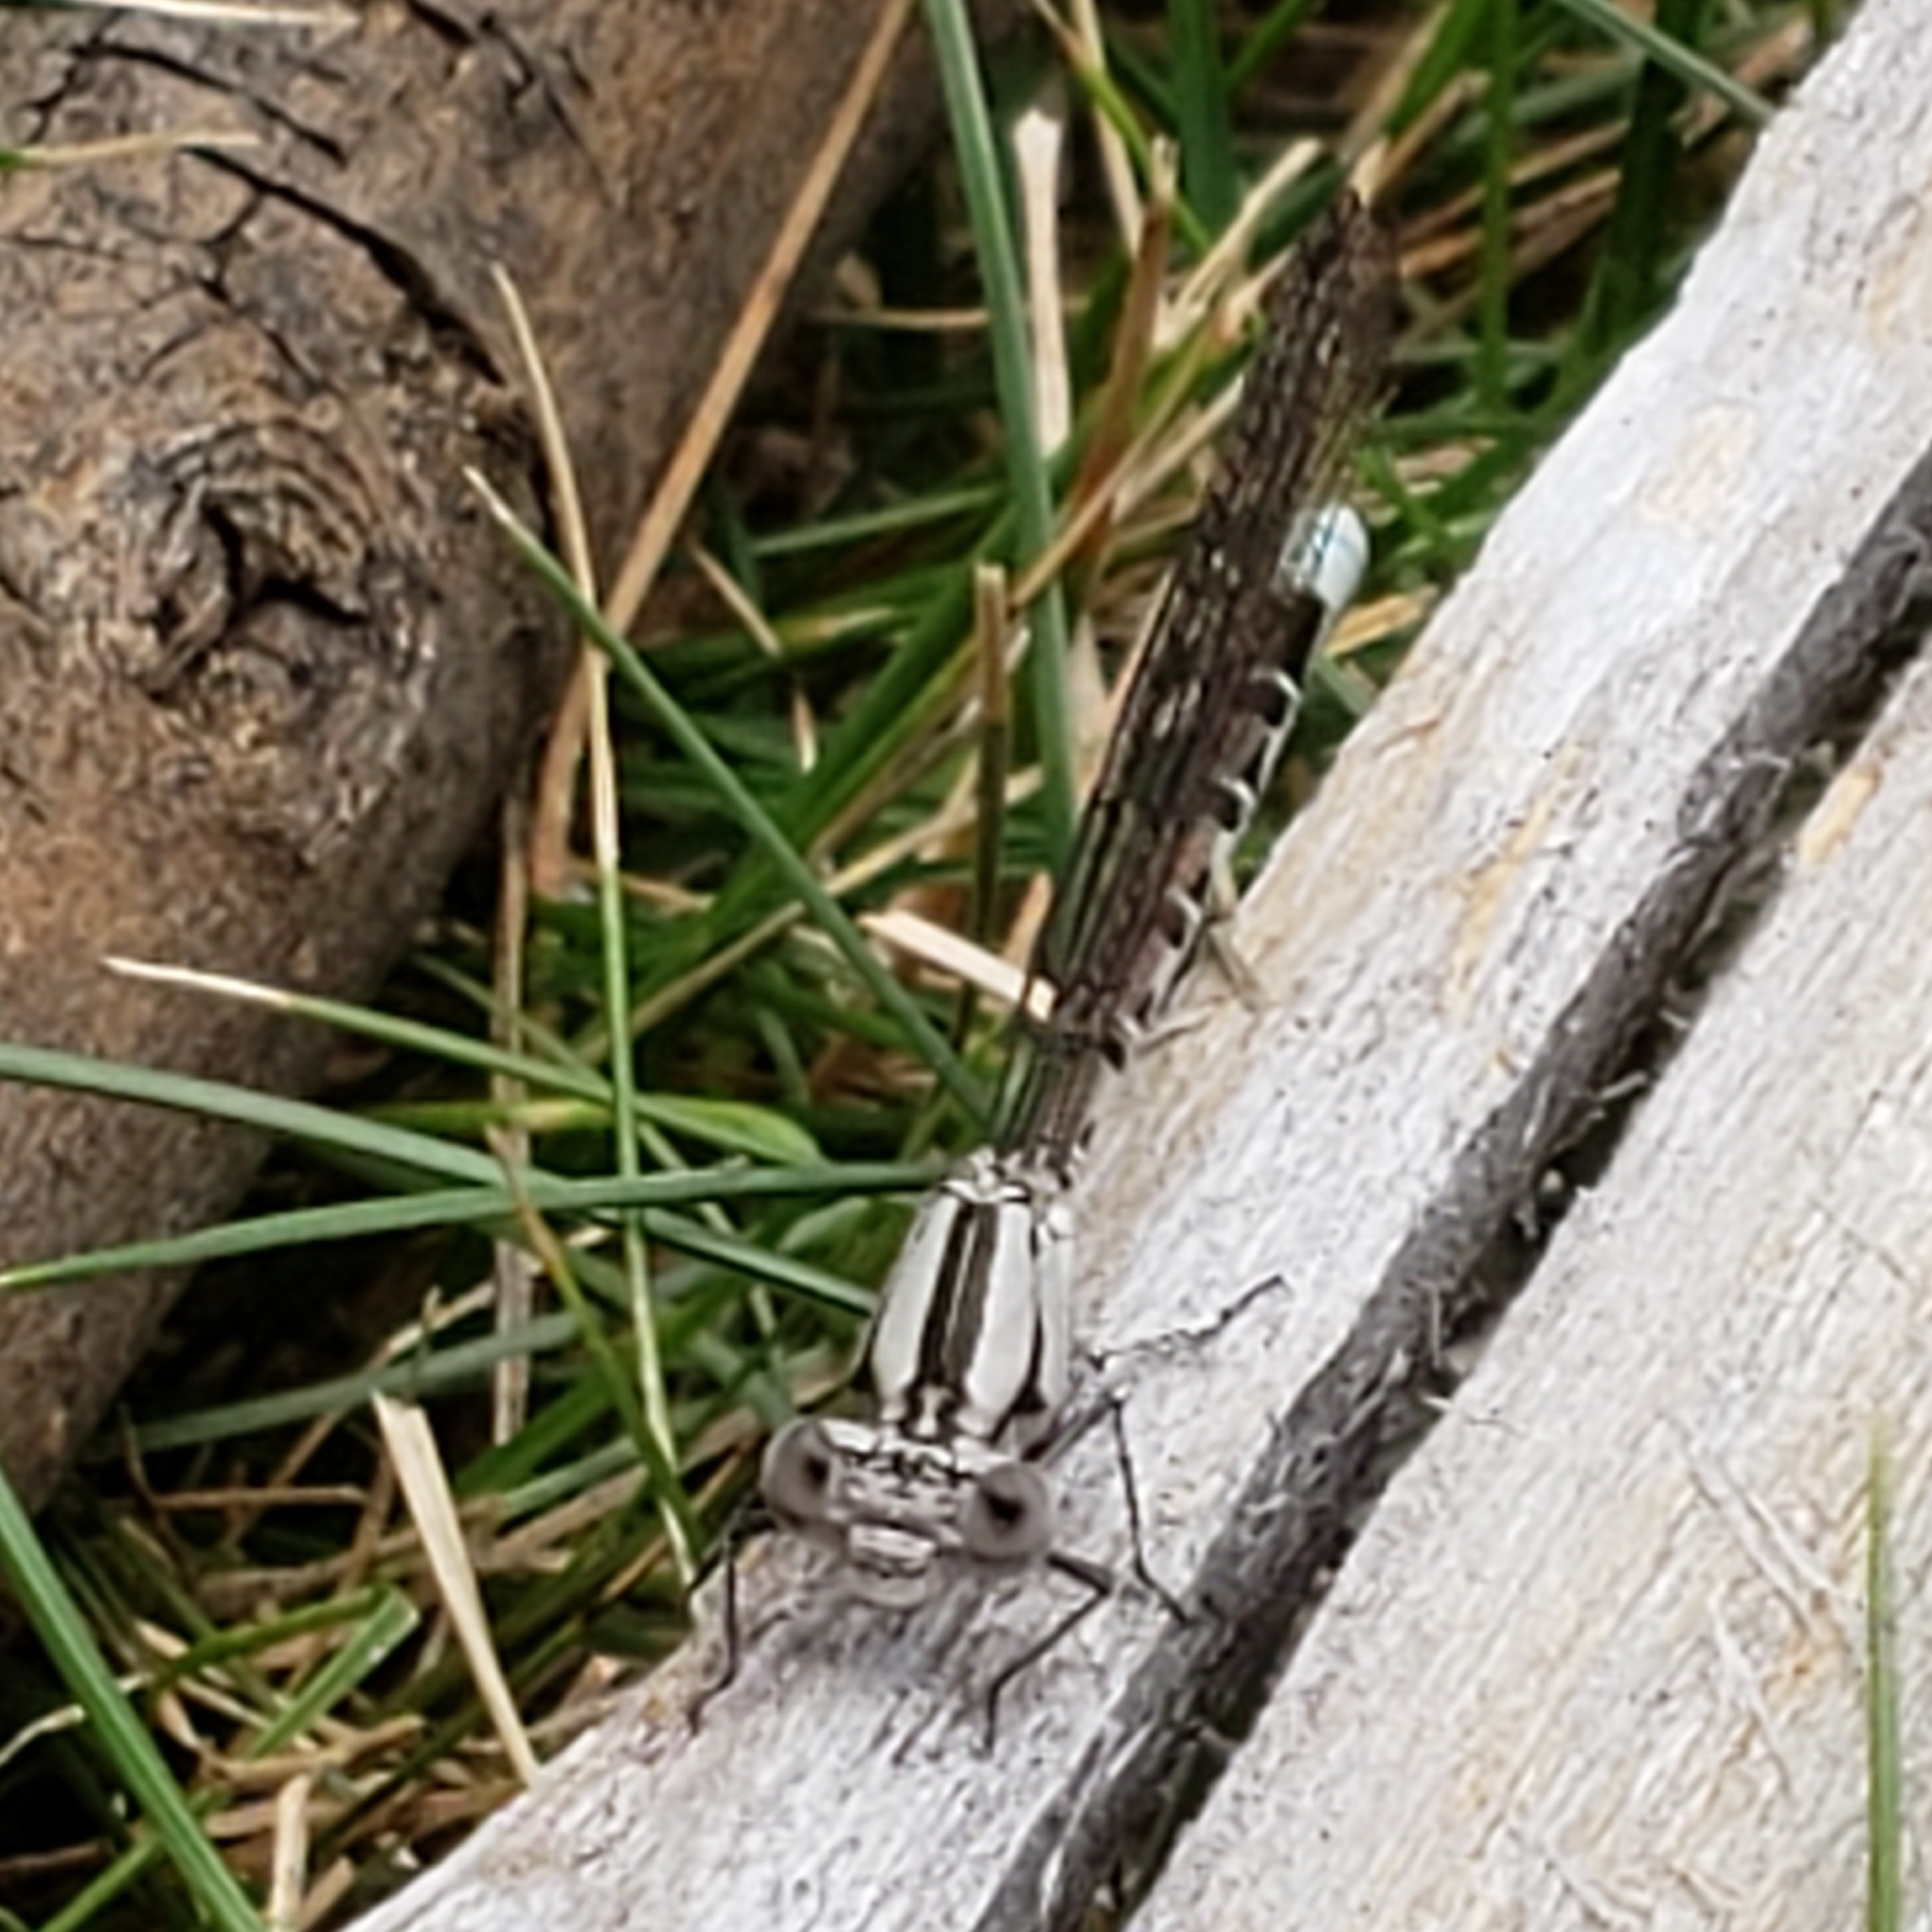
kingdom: Animalia
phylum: Arthropoda
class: Insecta
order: Odonata
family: Coenagrionidae
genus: Argia
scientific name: Argia vivida
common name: Vivid dancer
